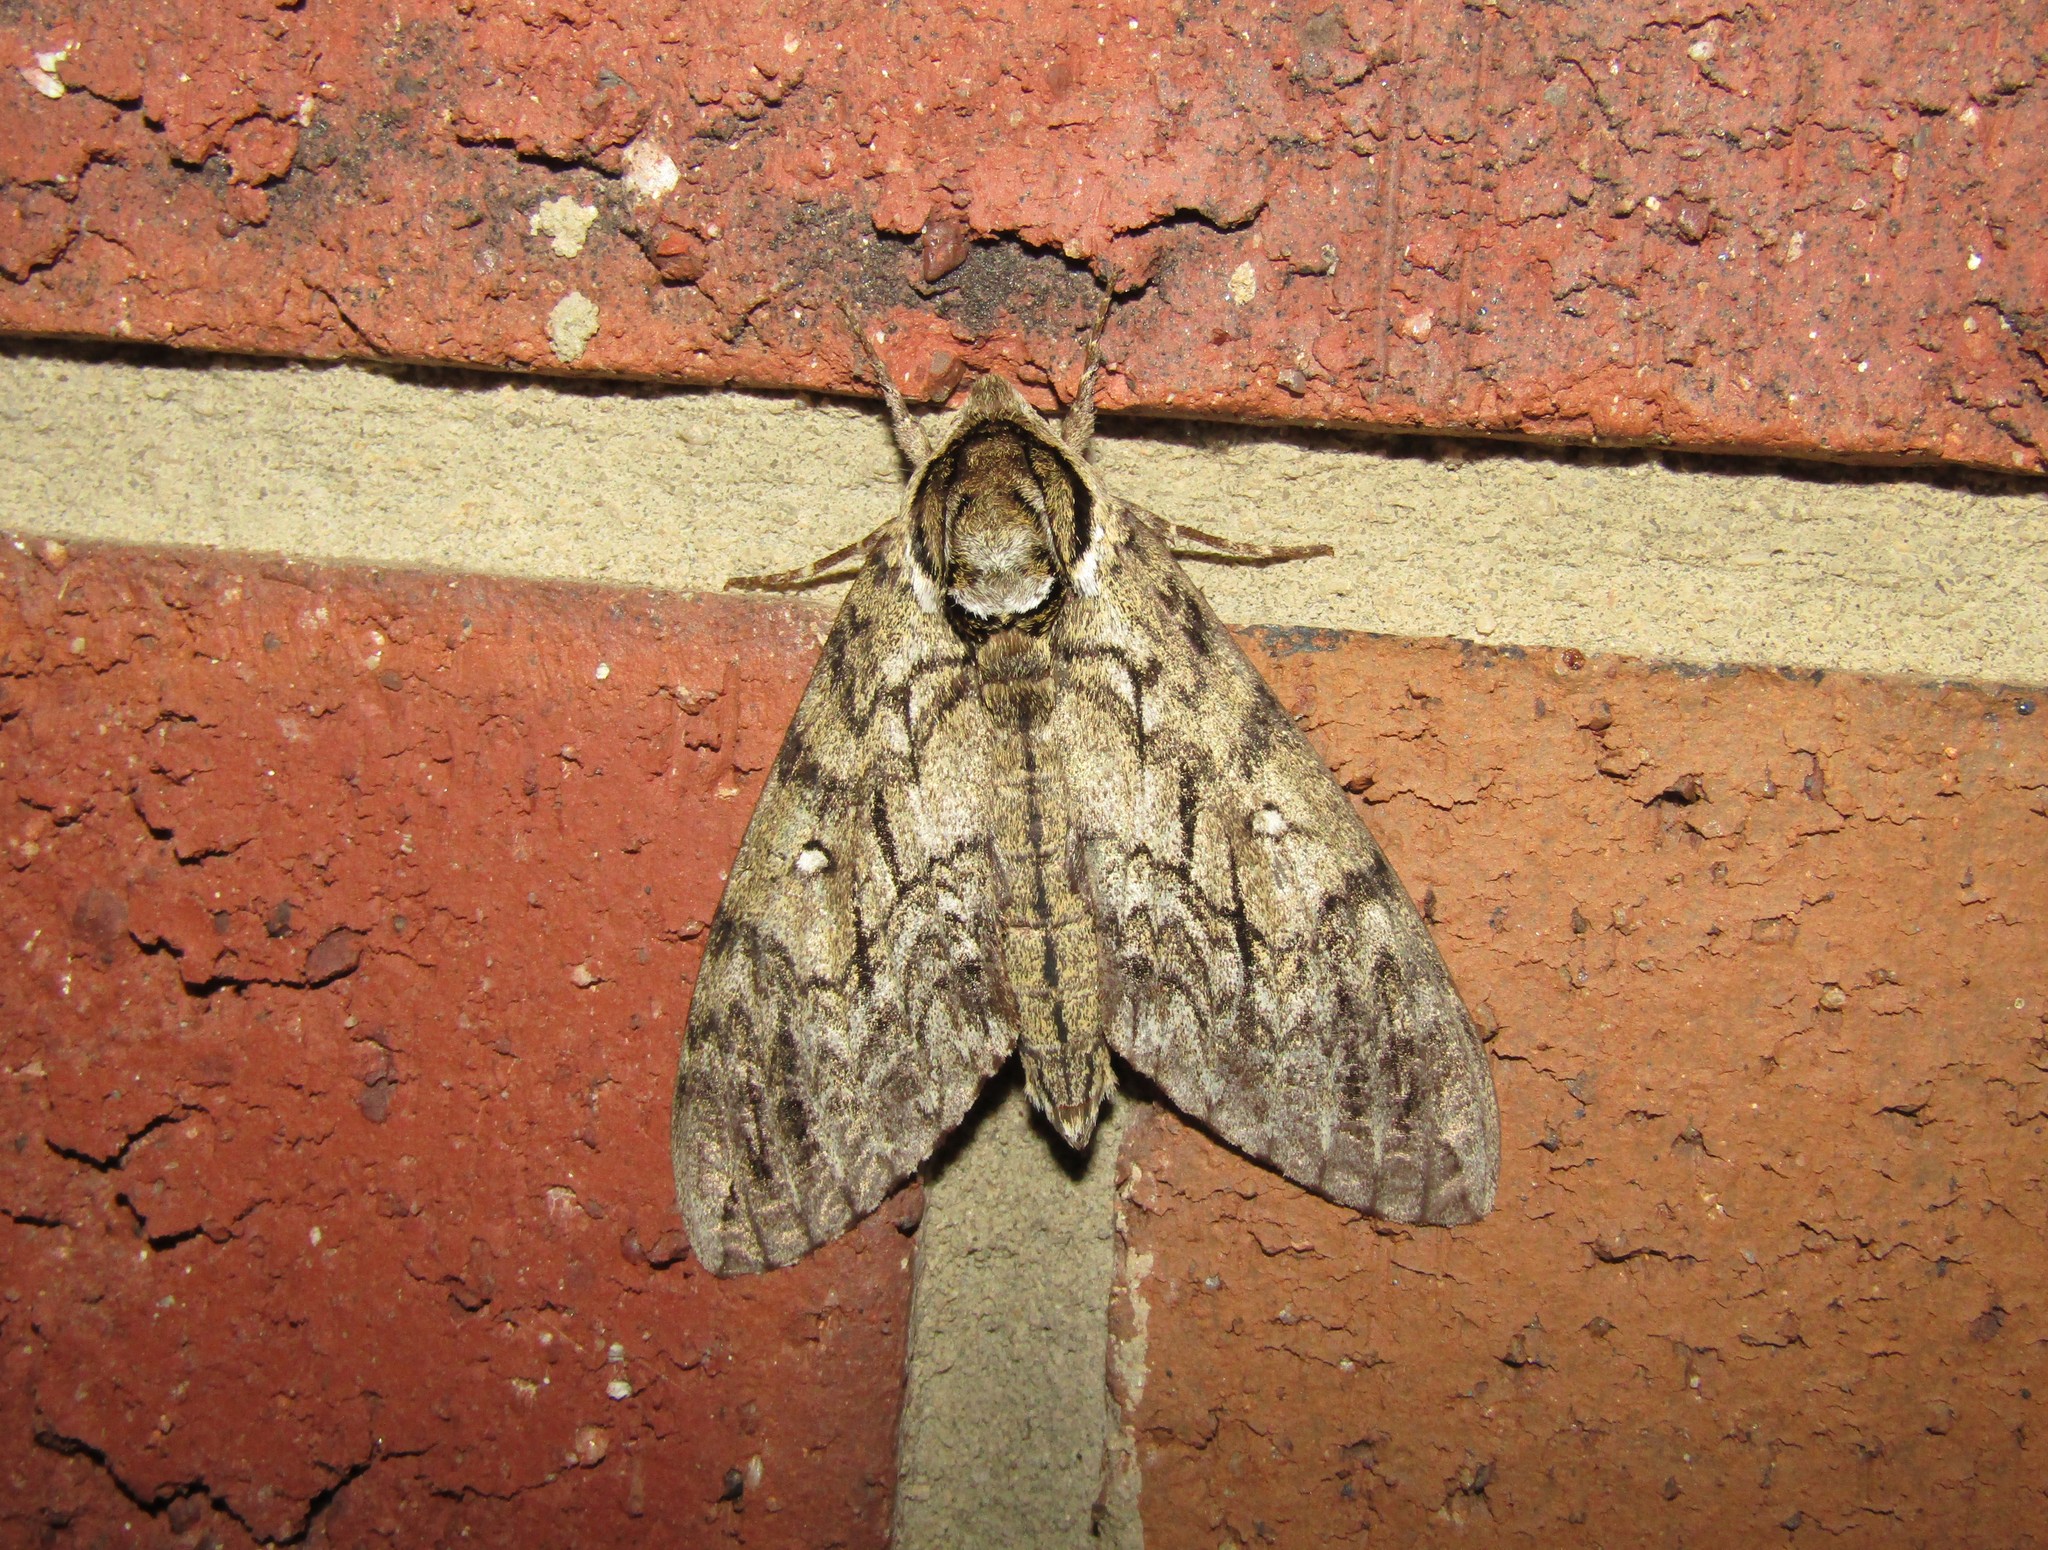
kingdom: Animalia
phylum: Arthropoda
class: Insecta
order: Lepidoptera
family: Sphingidae
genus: Ceratomia
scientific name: Ceratomia undulosa
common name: Waved sphinx
